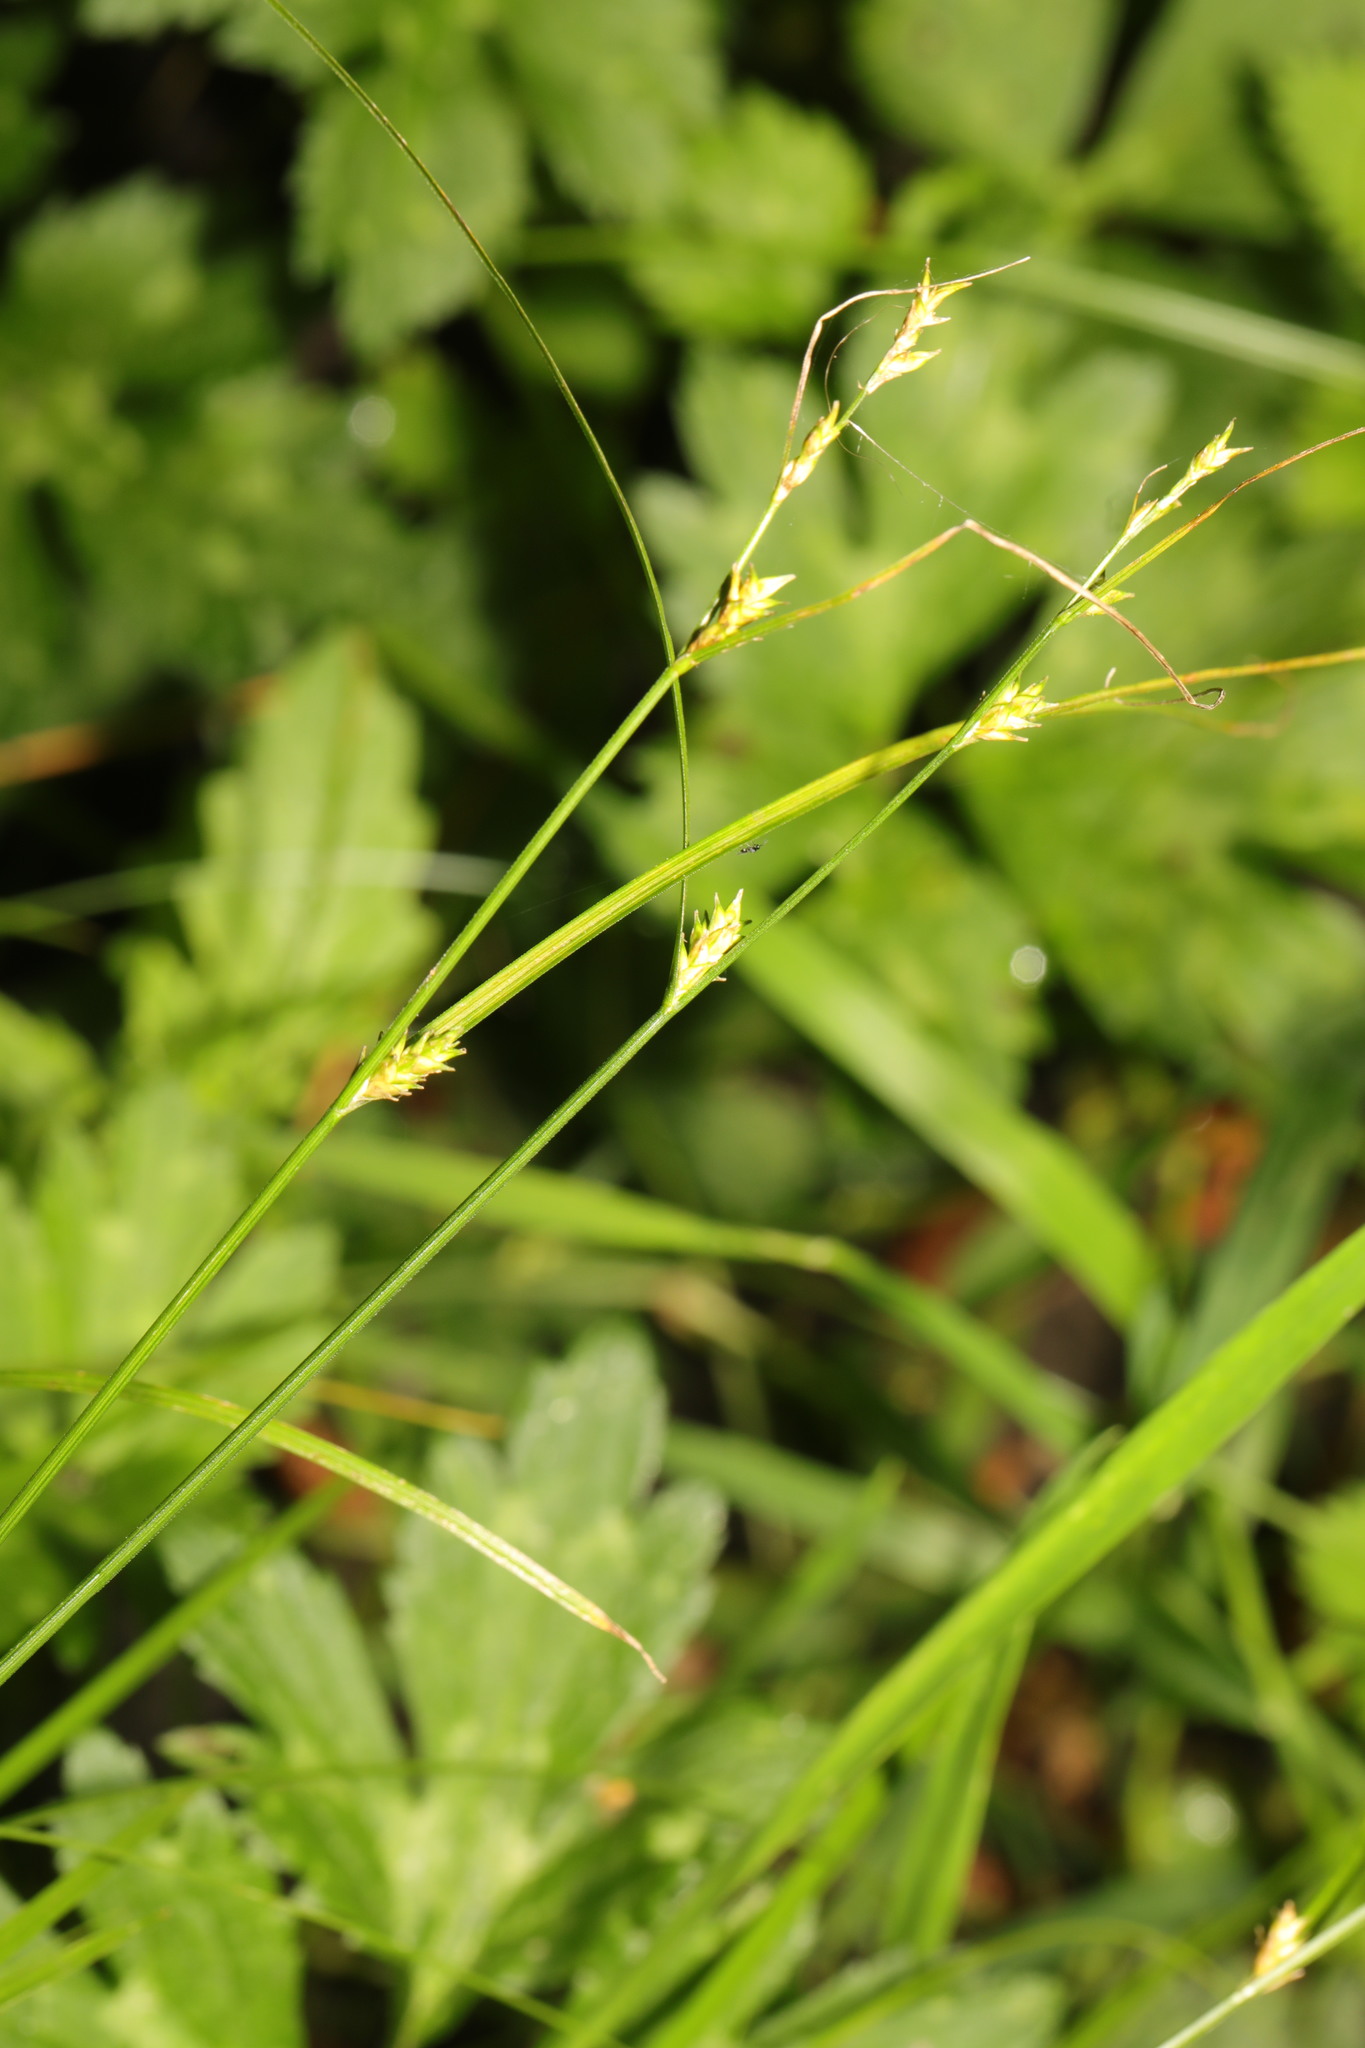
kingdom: Plantae
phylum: Tracheophyta
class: Liliopsida
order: Poales
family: Cyperaceae
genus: Carex
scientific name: Carex remota
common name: Remote sedge
